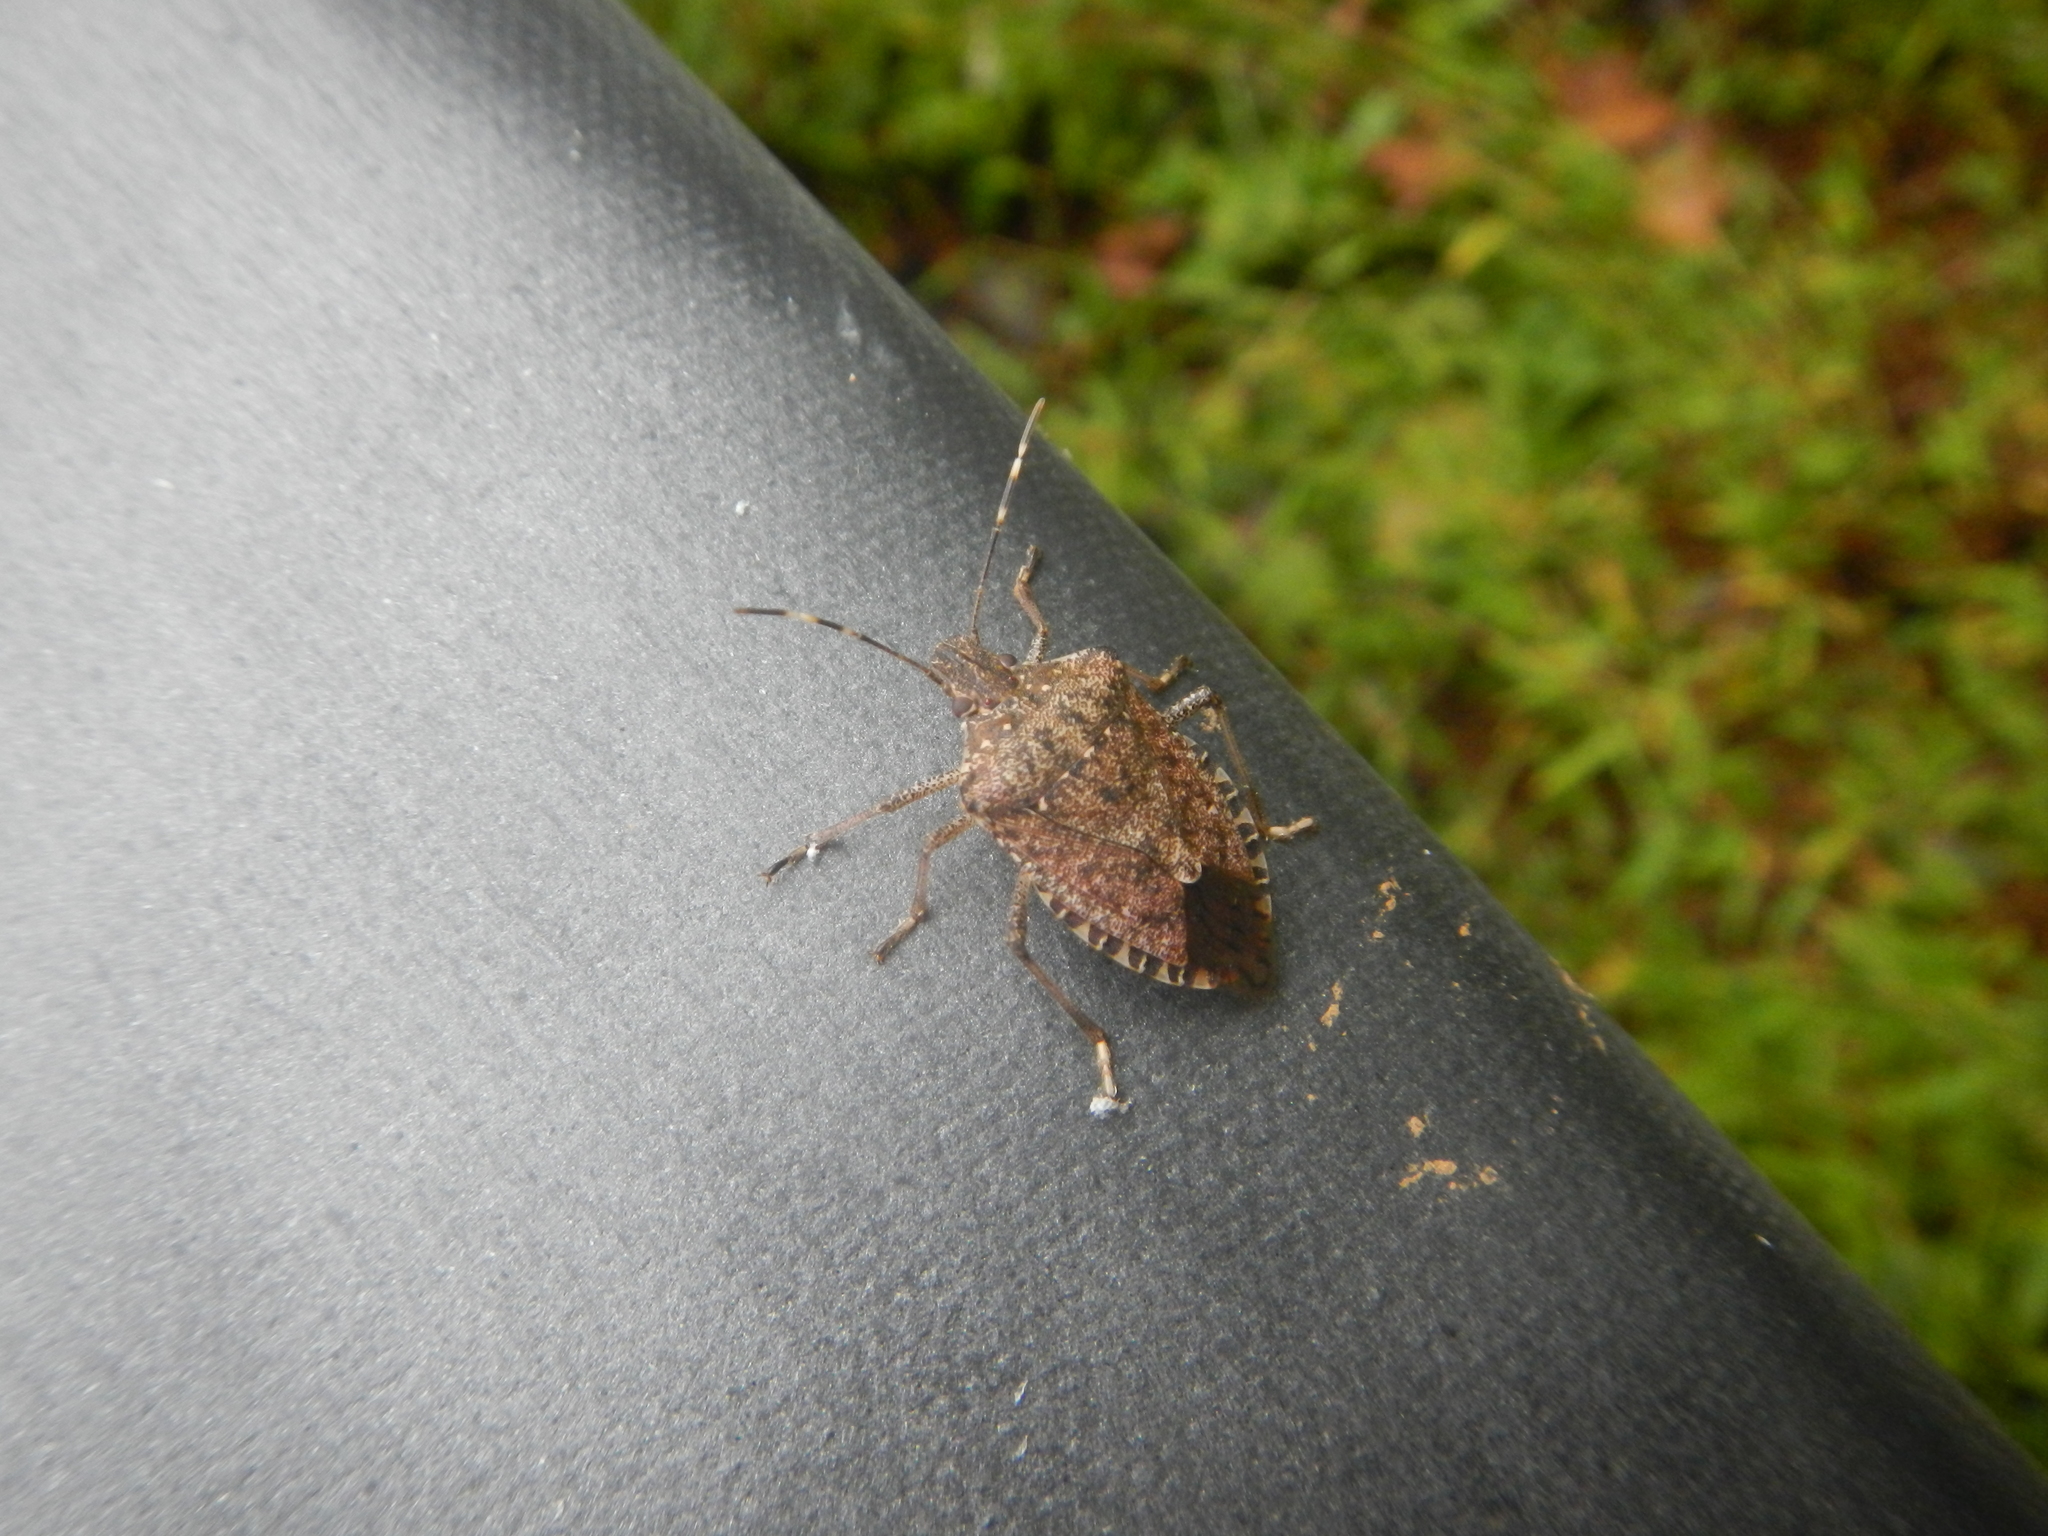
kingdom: Animalia
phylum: Arthropoda
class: Insecta
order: Hemiptera
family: Pentatomidae
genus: Halyomorpha
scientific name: Halyomorpha halys
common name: Brown marmorated stink bug
